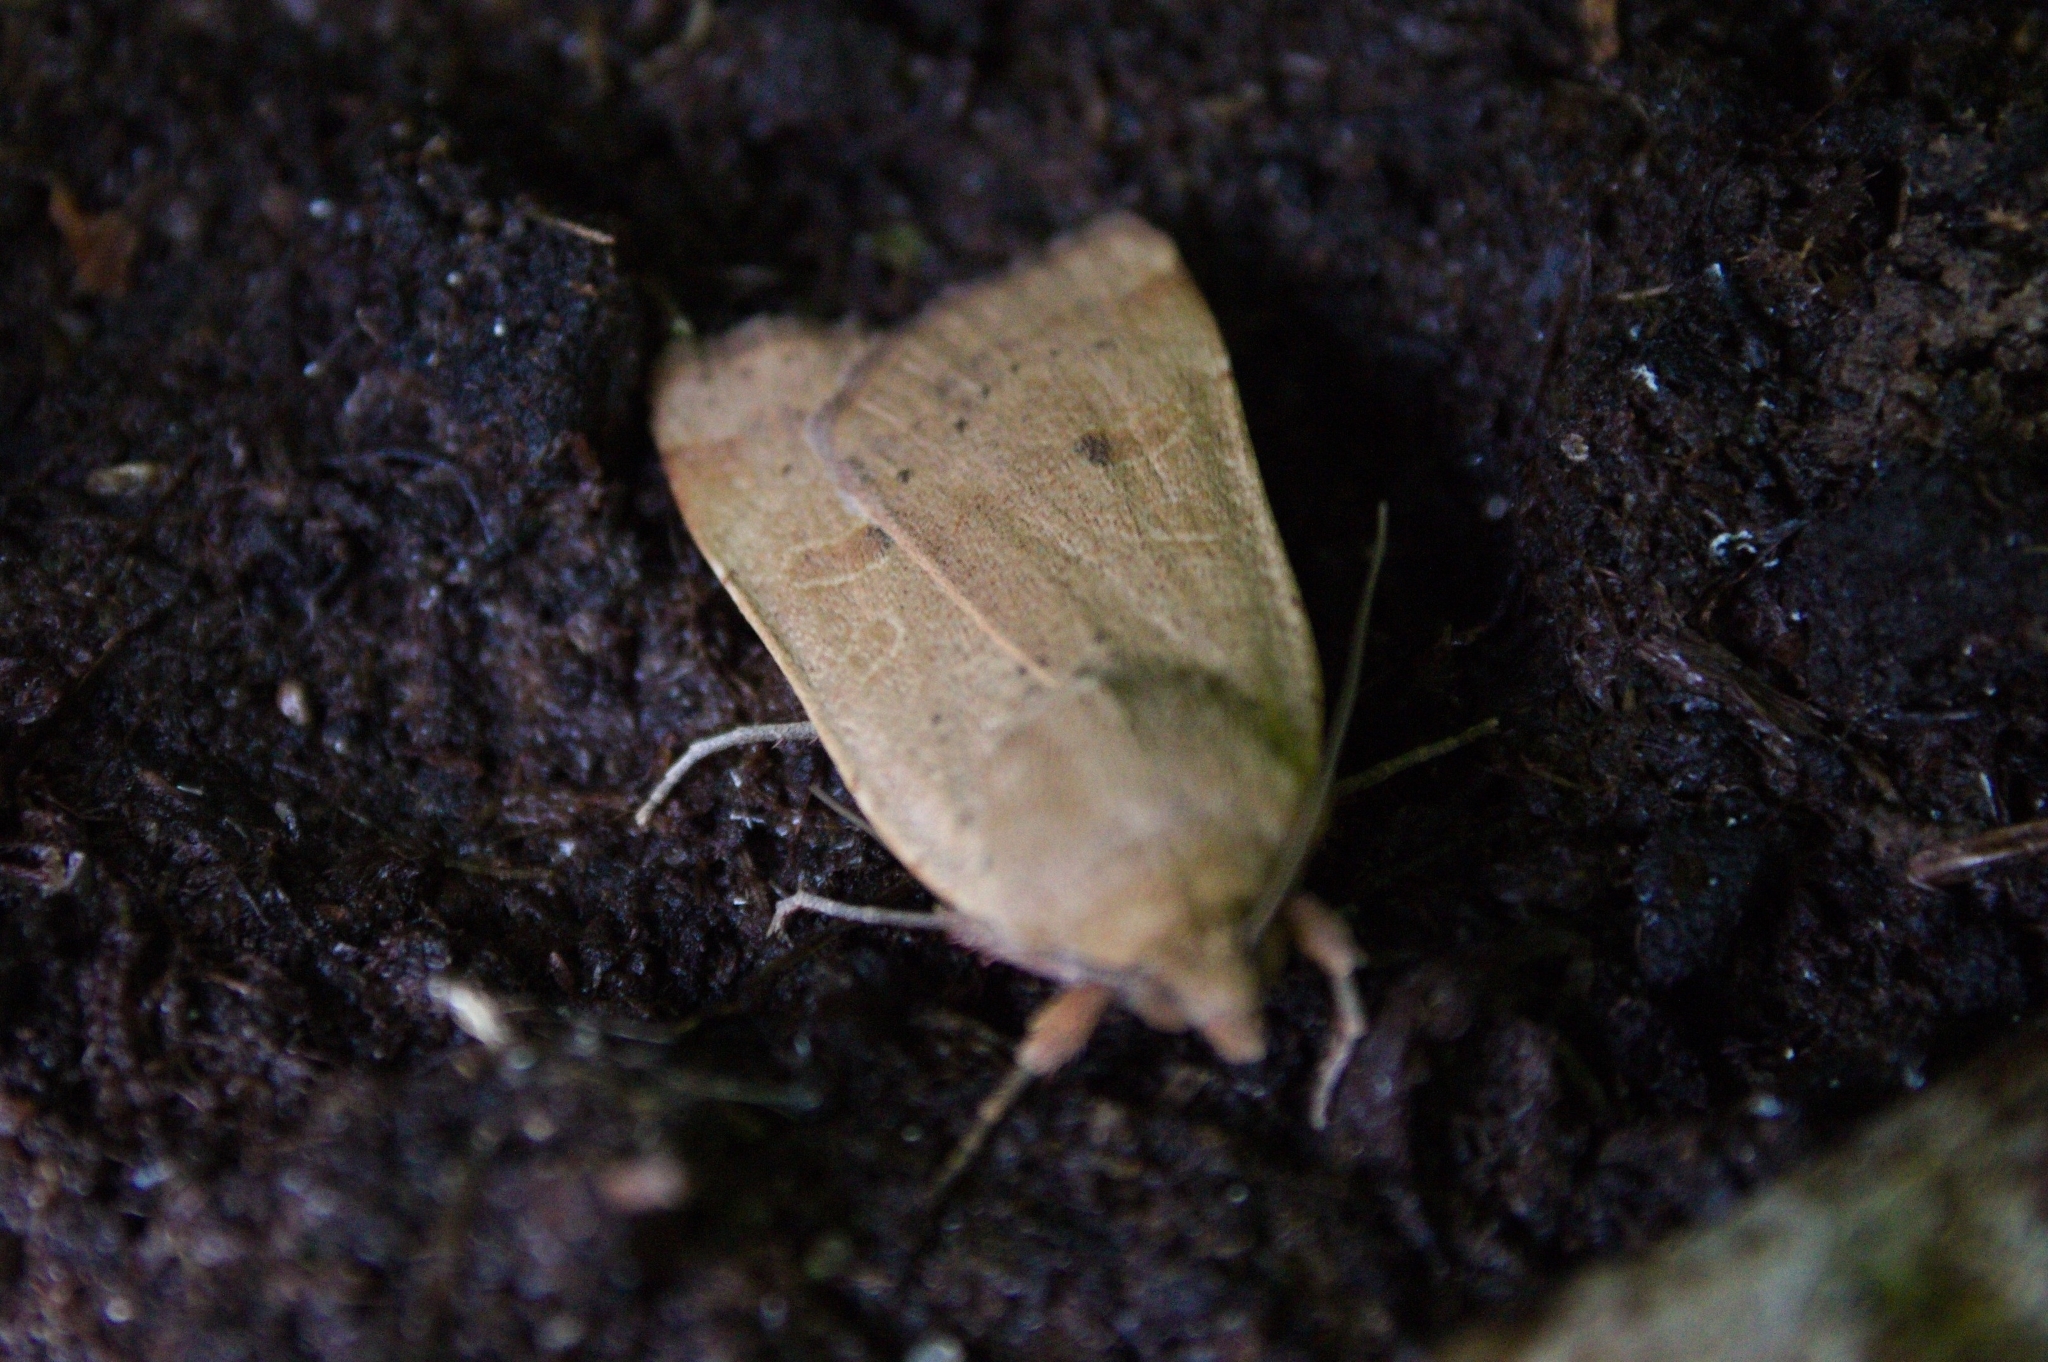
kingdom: Animalia
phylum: Arthropoda
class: Insecta
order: Lepidoptera
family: Noctuidae
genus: Noctua
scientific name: Noctua comes
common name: Lesser yellow underwing
